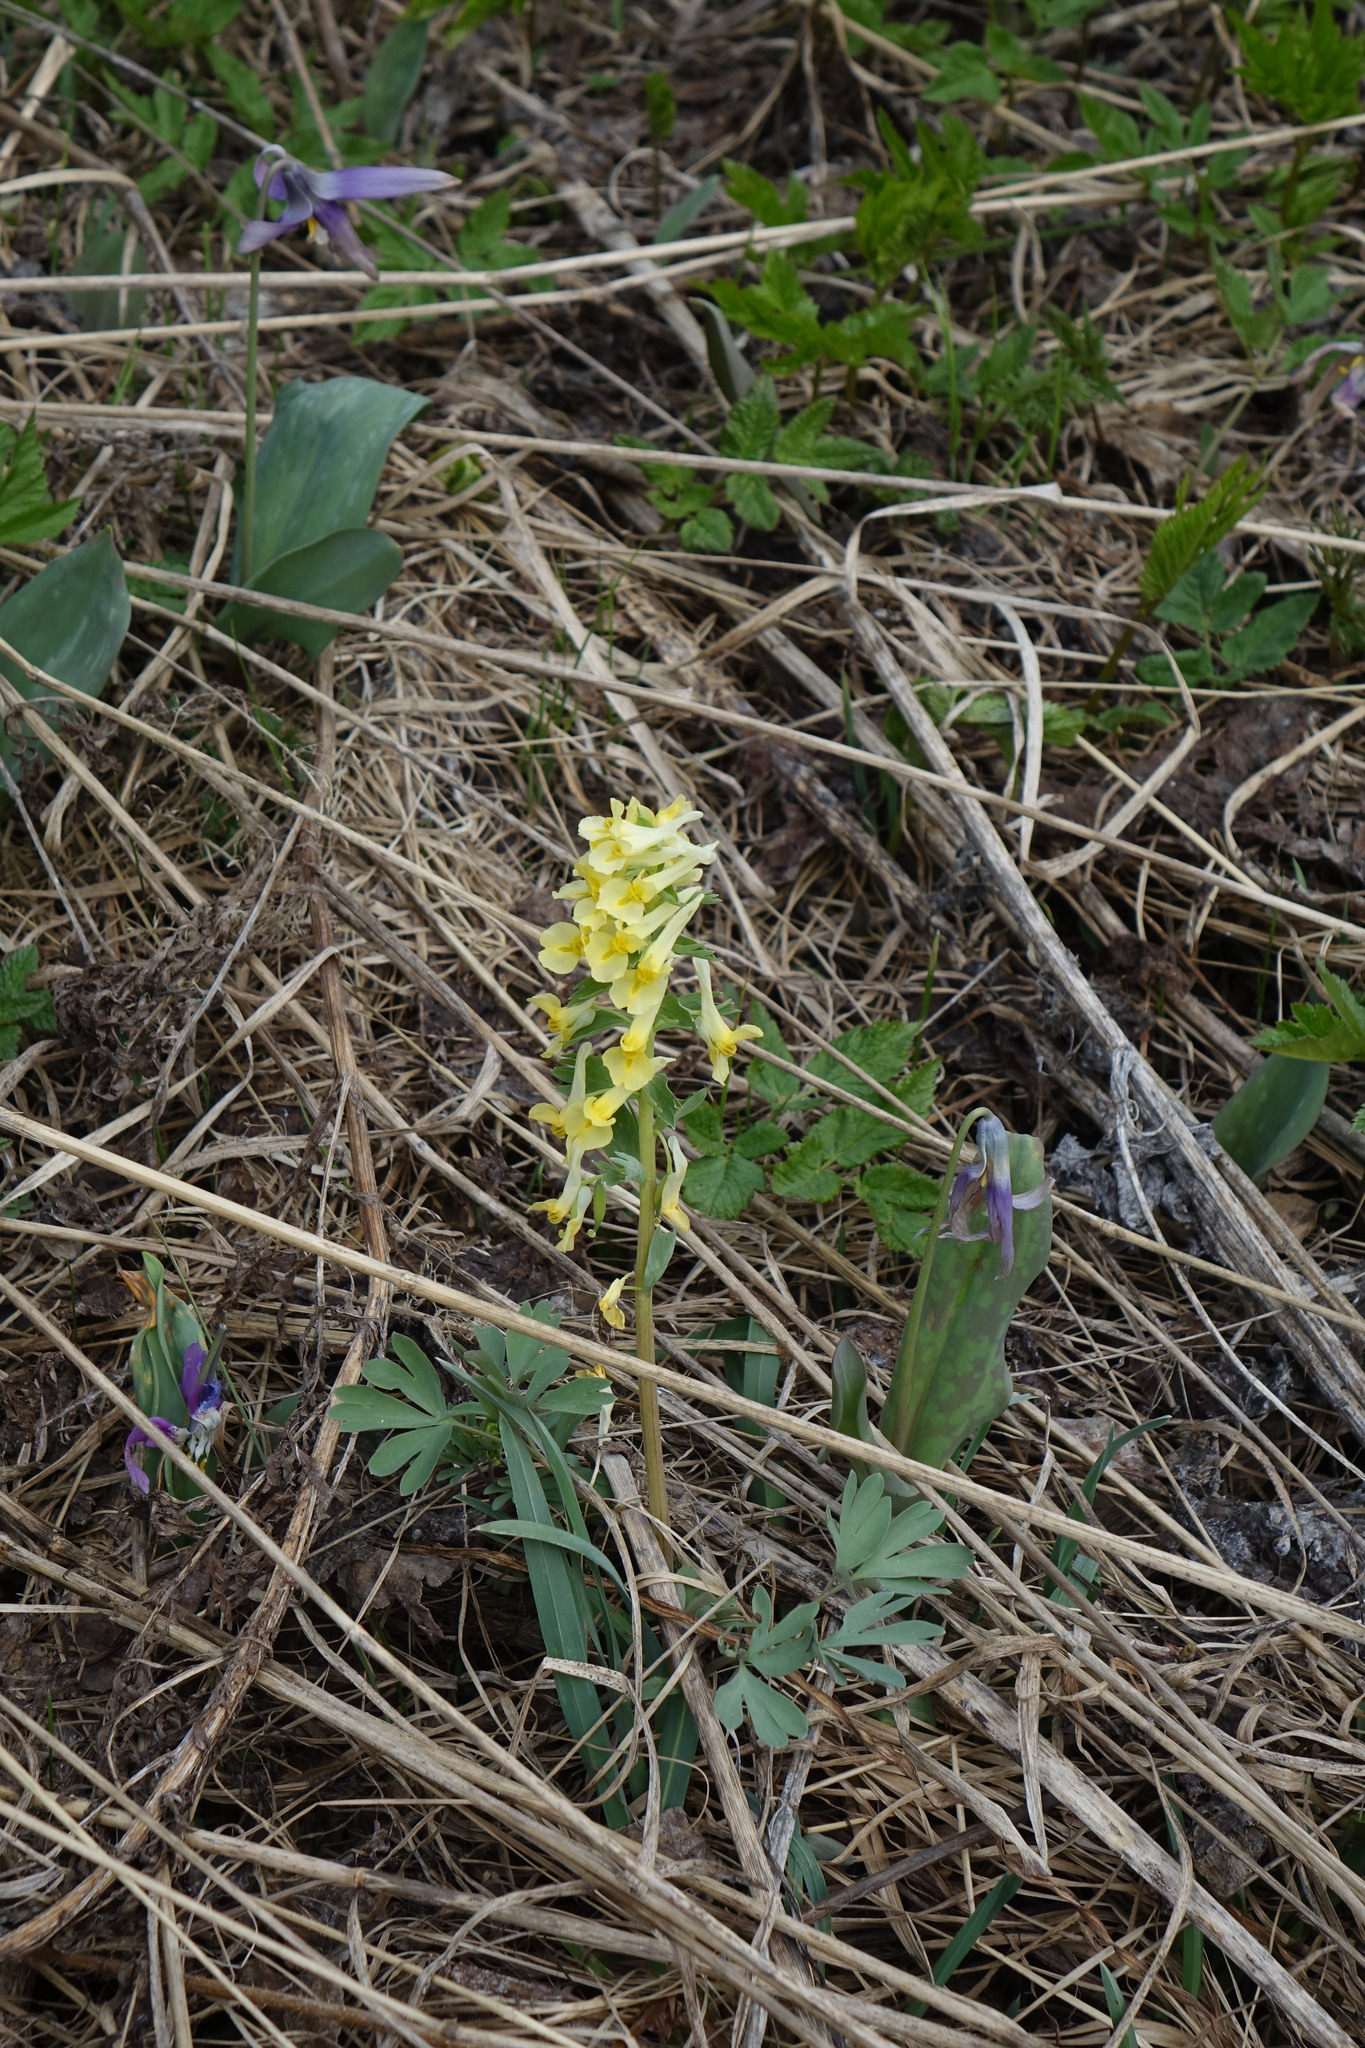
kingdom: Plantae
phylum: Tracheophyta
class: Magnoliopsida
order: Ranunculales
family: Papaveraceae
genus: Corydalis
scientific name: Corydalis bracteata
